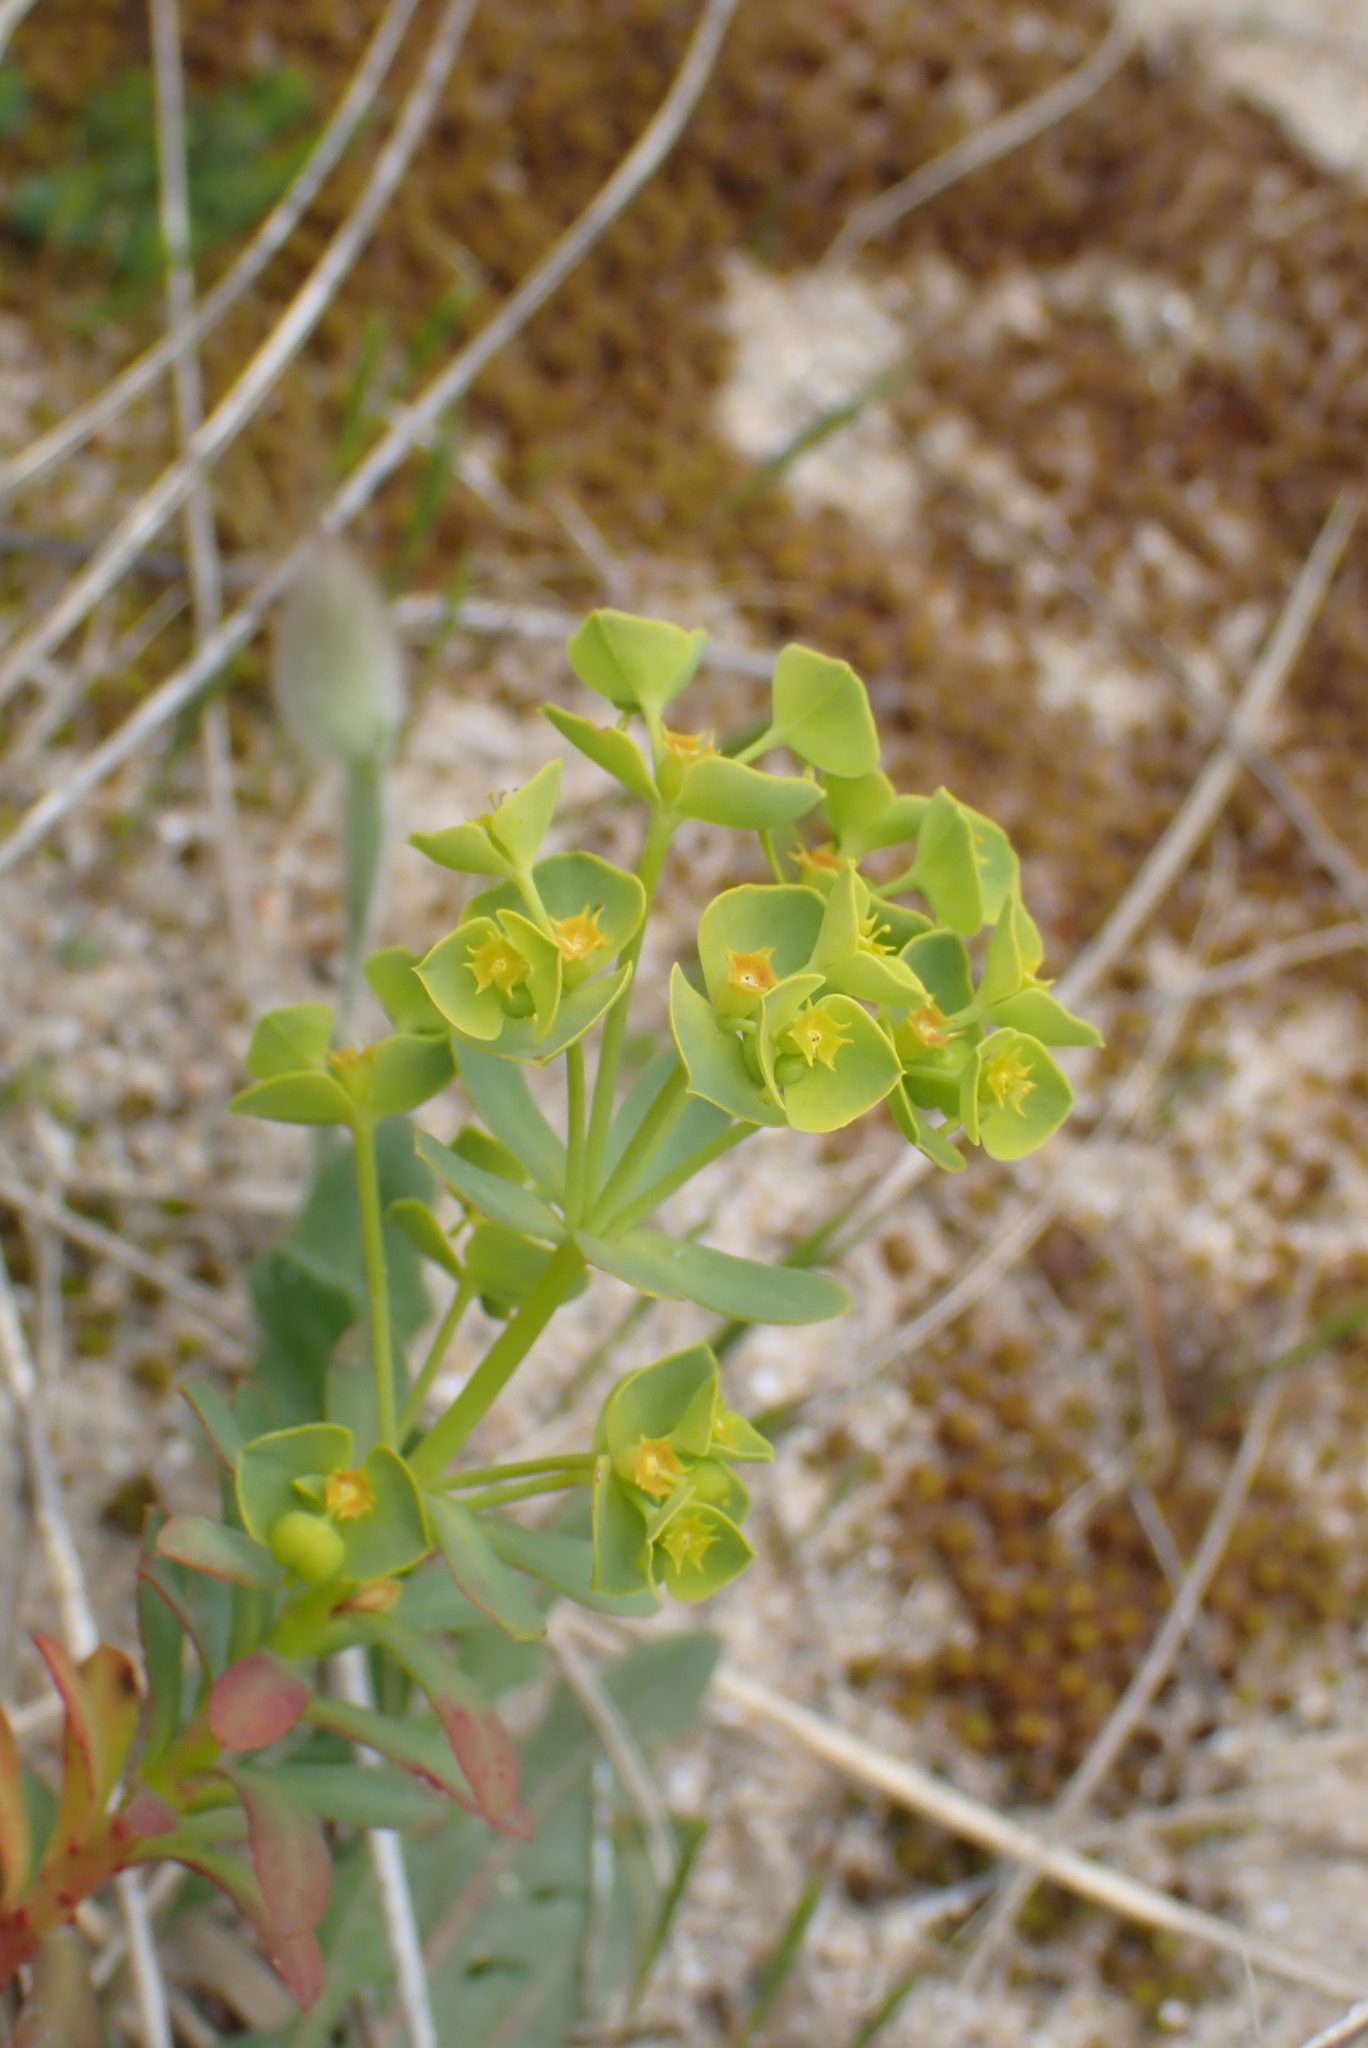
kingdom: Plantae
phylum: Tracheophyta
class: Magnoliopsida
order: Malpighiales
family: Euphorbiaceae
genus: Euphorbia
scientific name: Euphorbia portlandica
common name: Portland spurge
